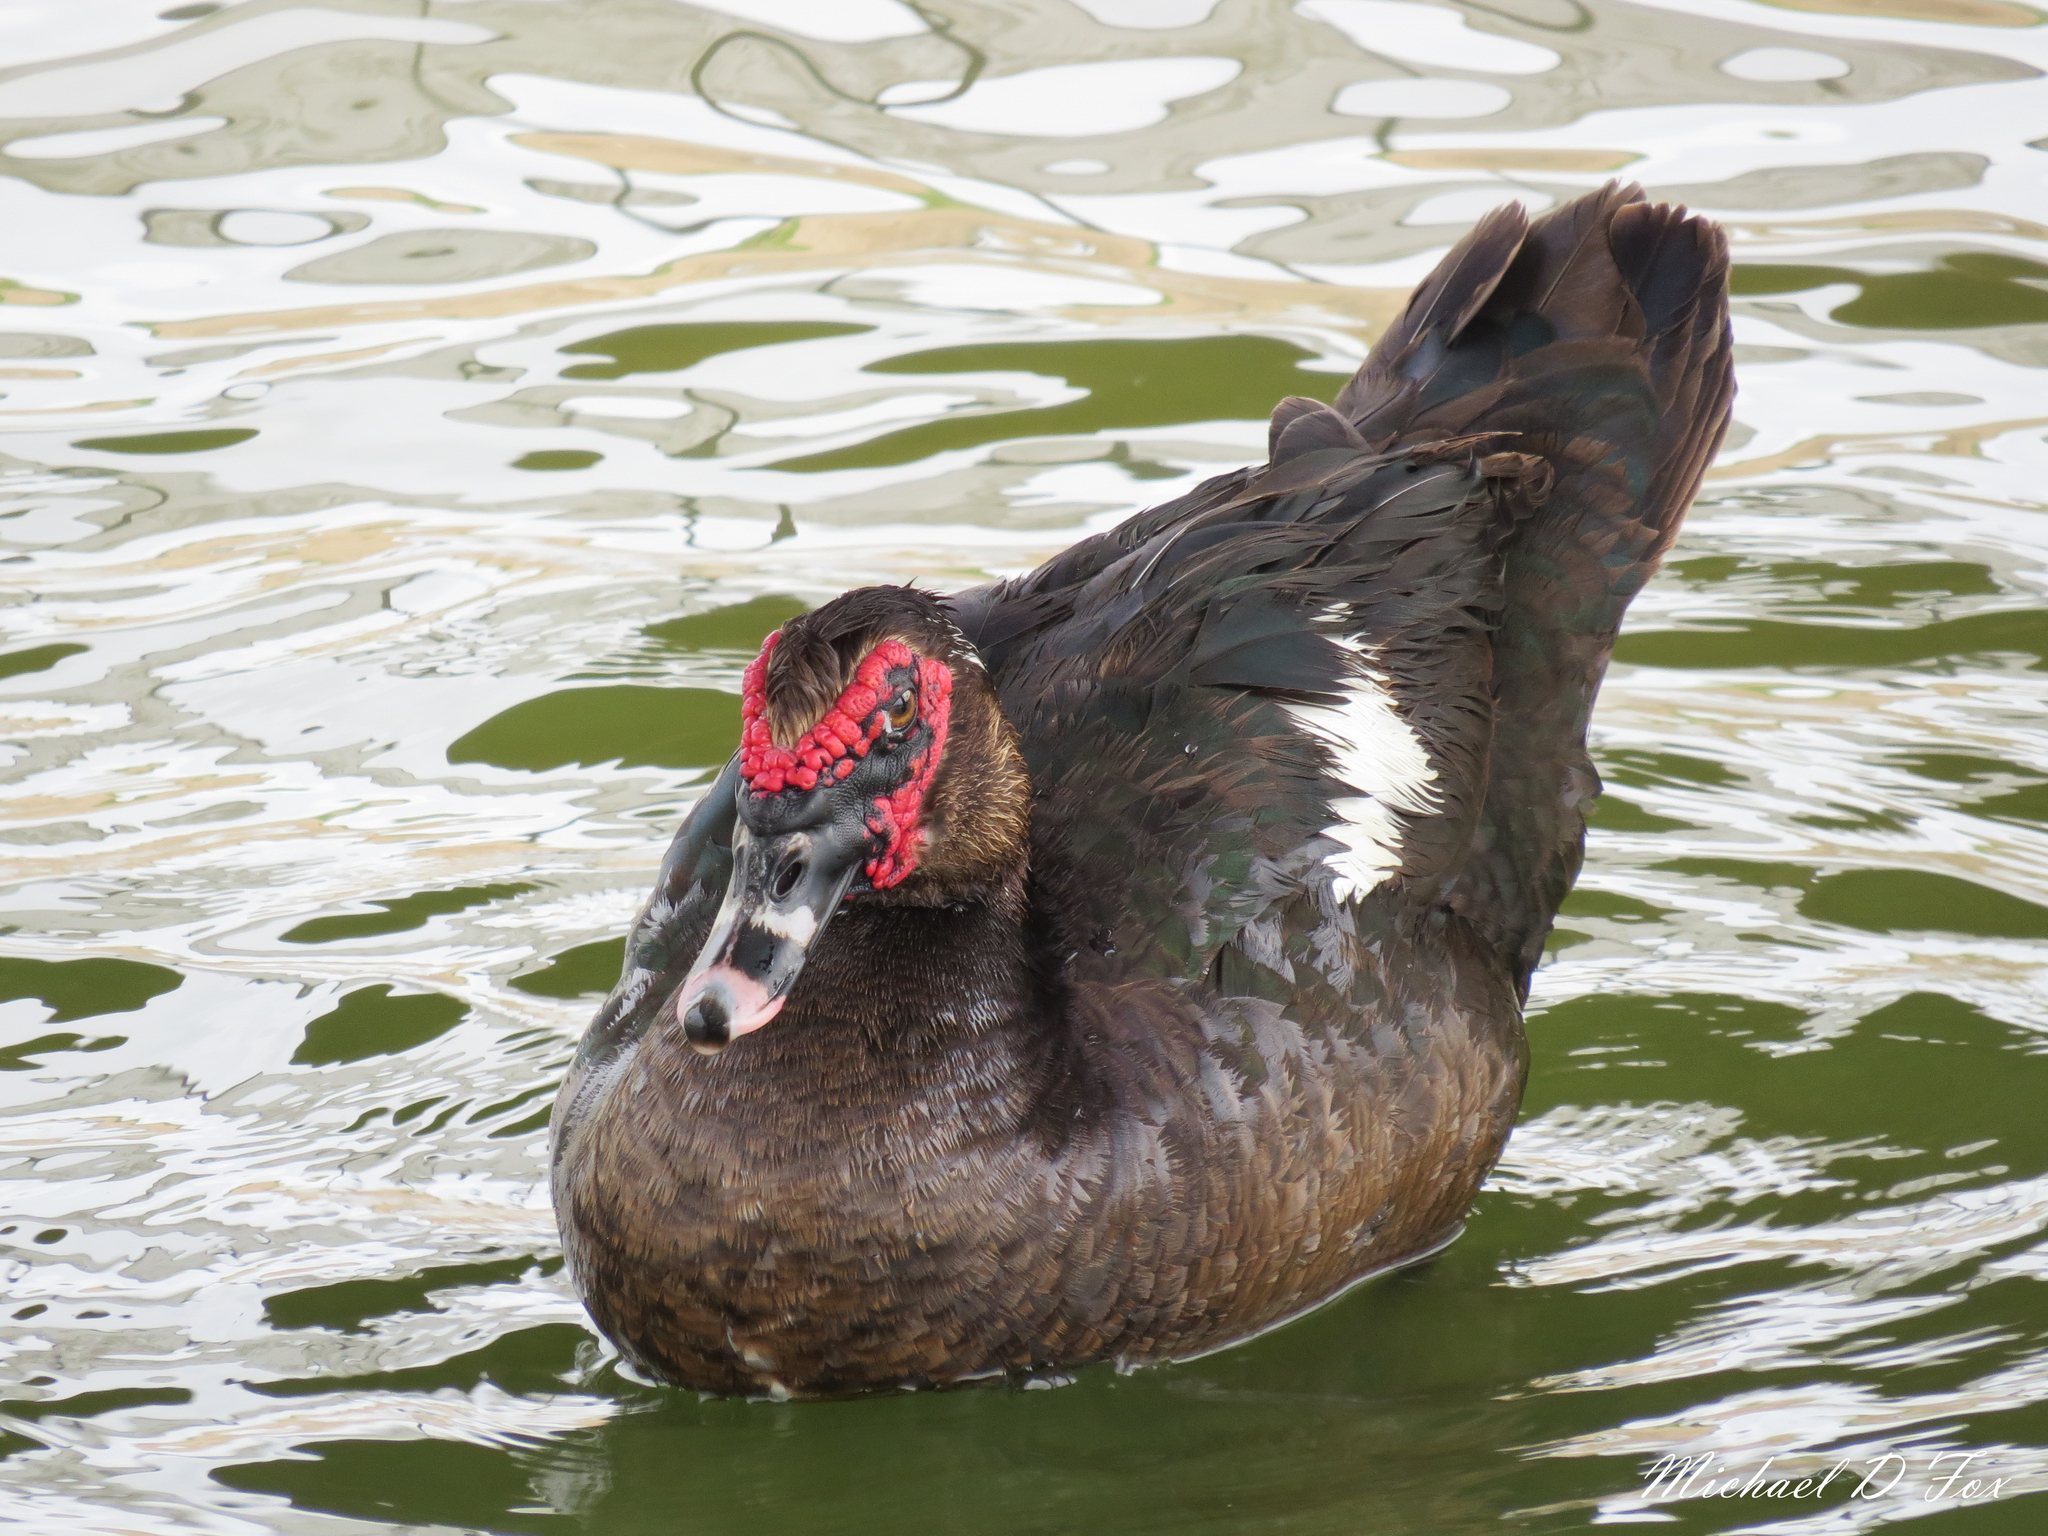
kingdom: Animalia
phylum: Chordata
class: Aves
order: Anseriformes
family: Anatidae
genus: Cairina
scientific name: Cairina moschata
